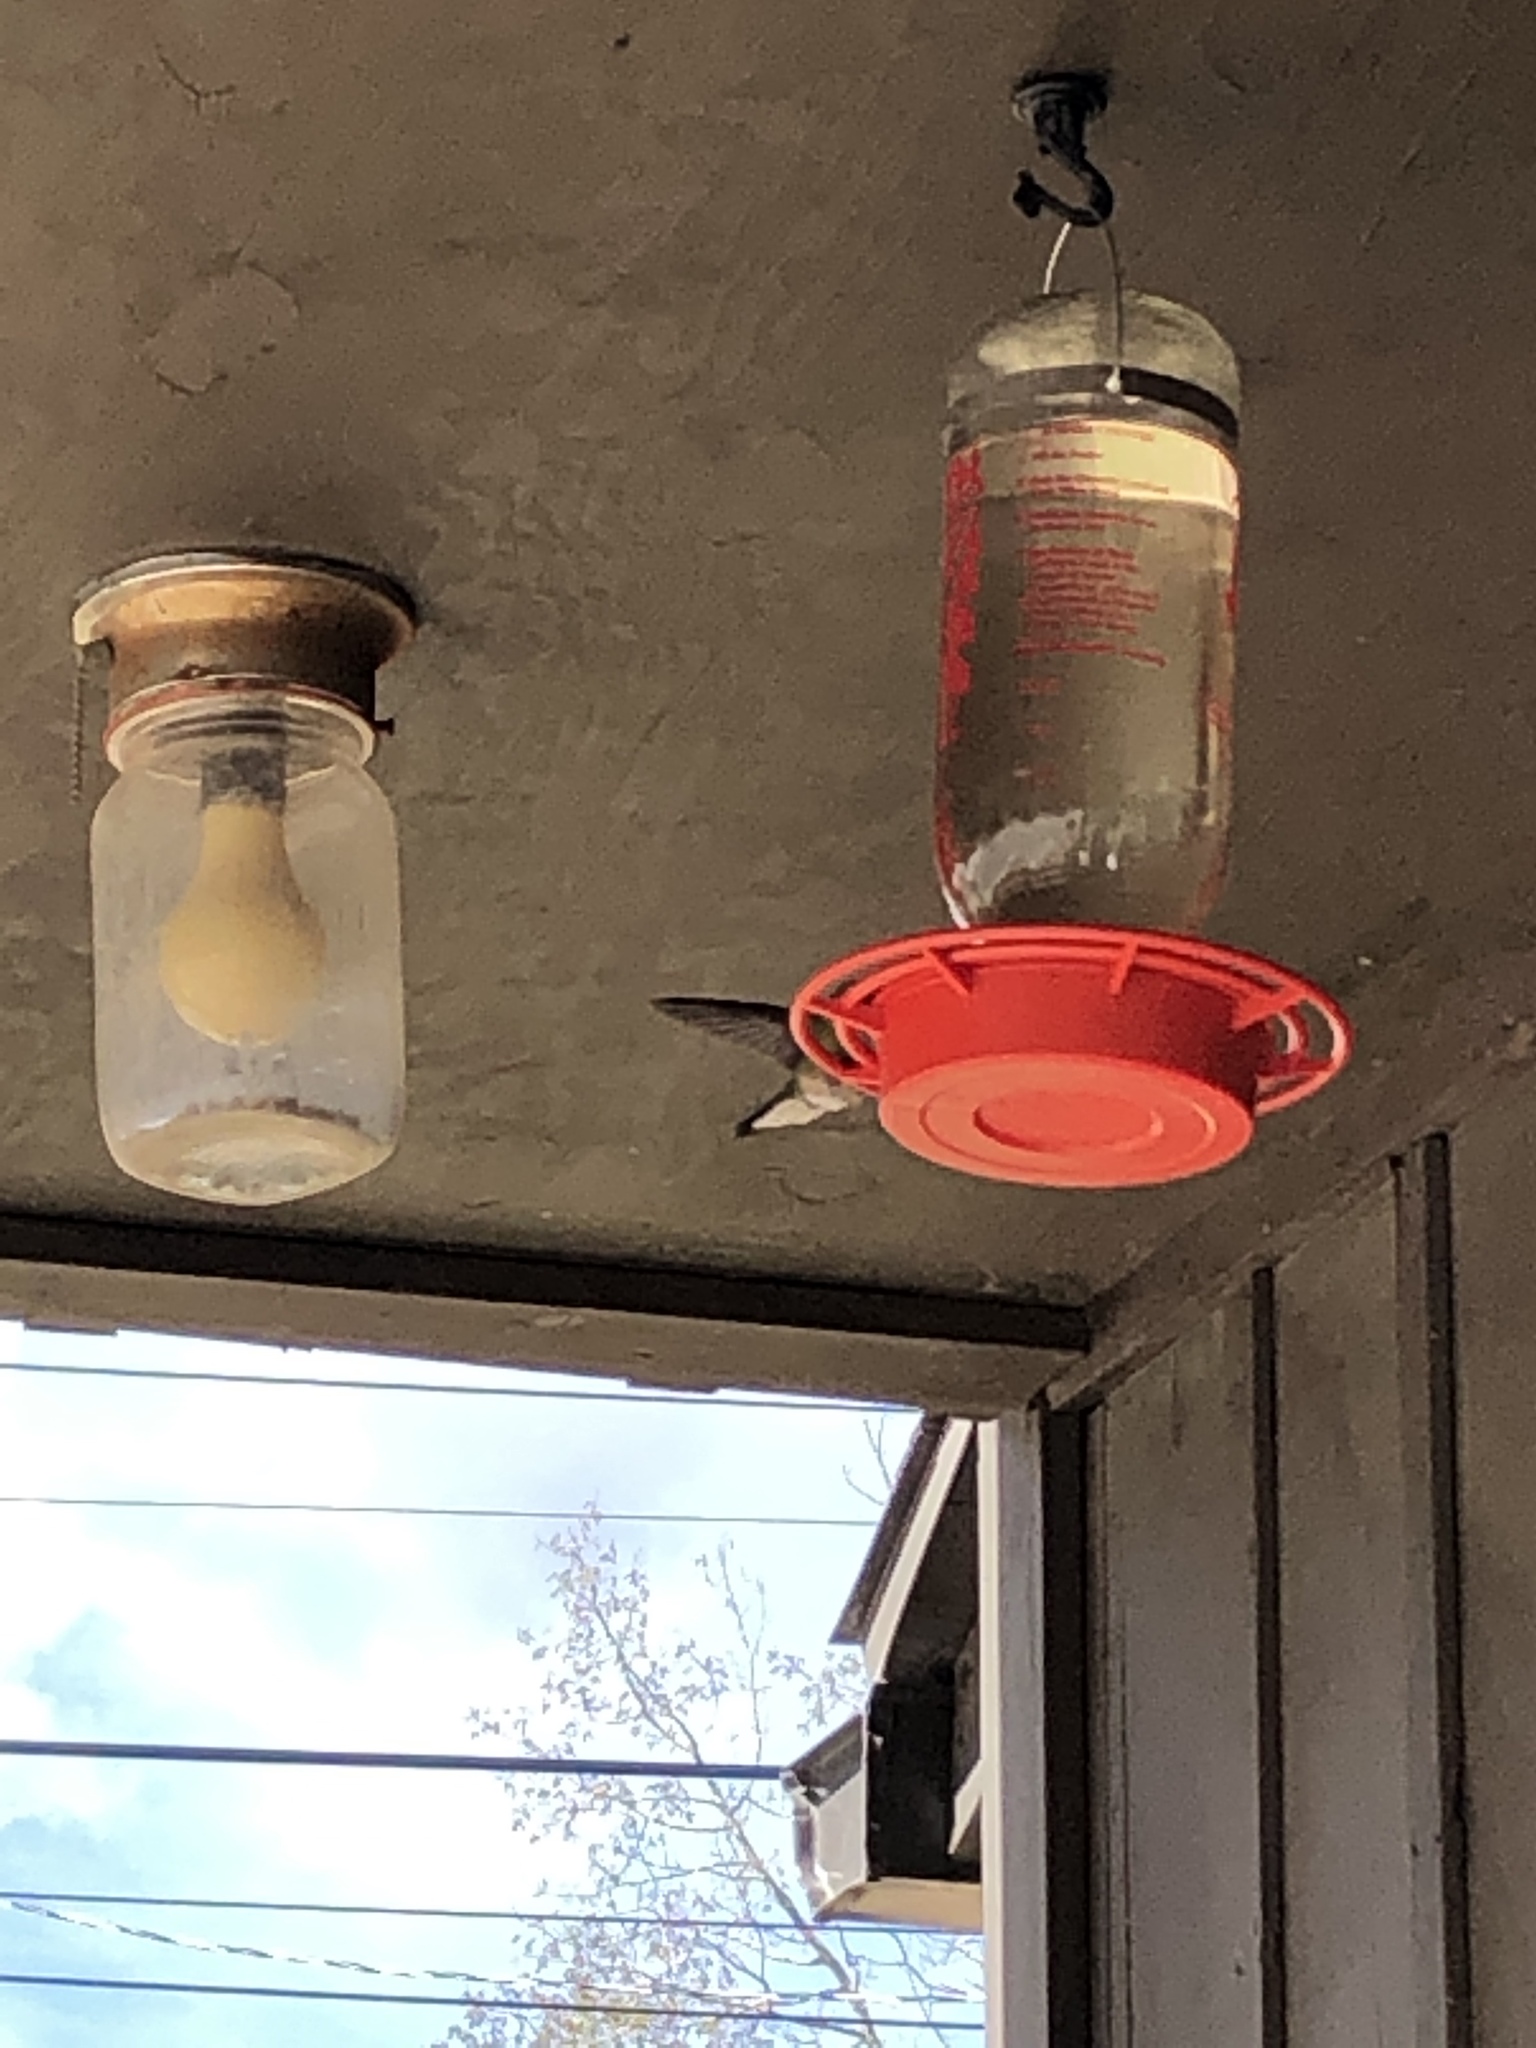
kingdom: Animalia
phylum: Chordata
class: Aves
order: Apodiformes
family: Trochilidae
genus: Selasphorus
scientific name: Selasphorus platycercus
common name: Broad-tailed hummingbird
